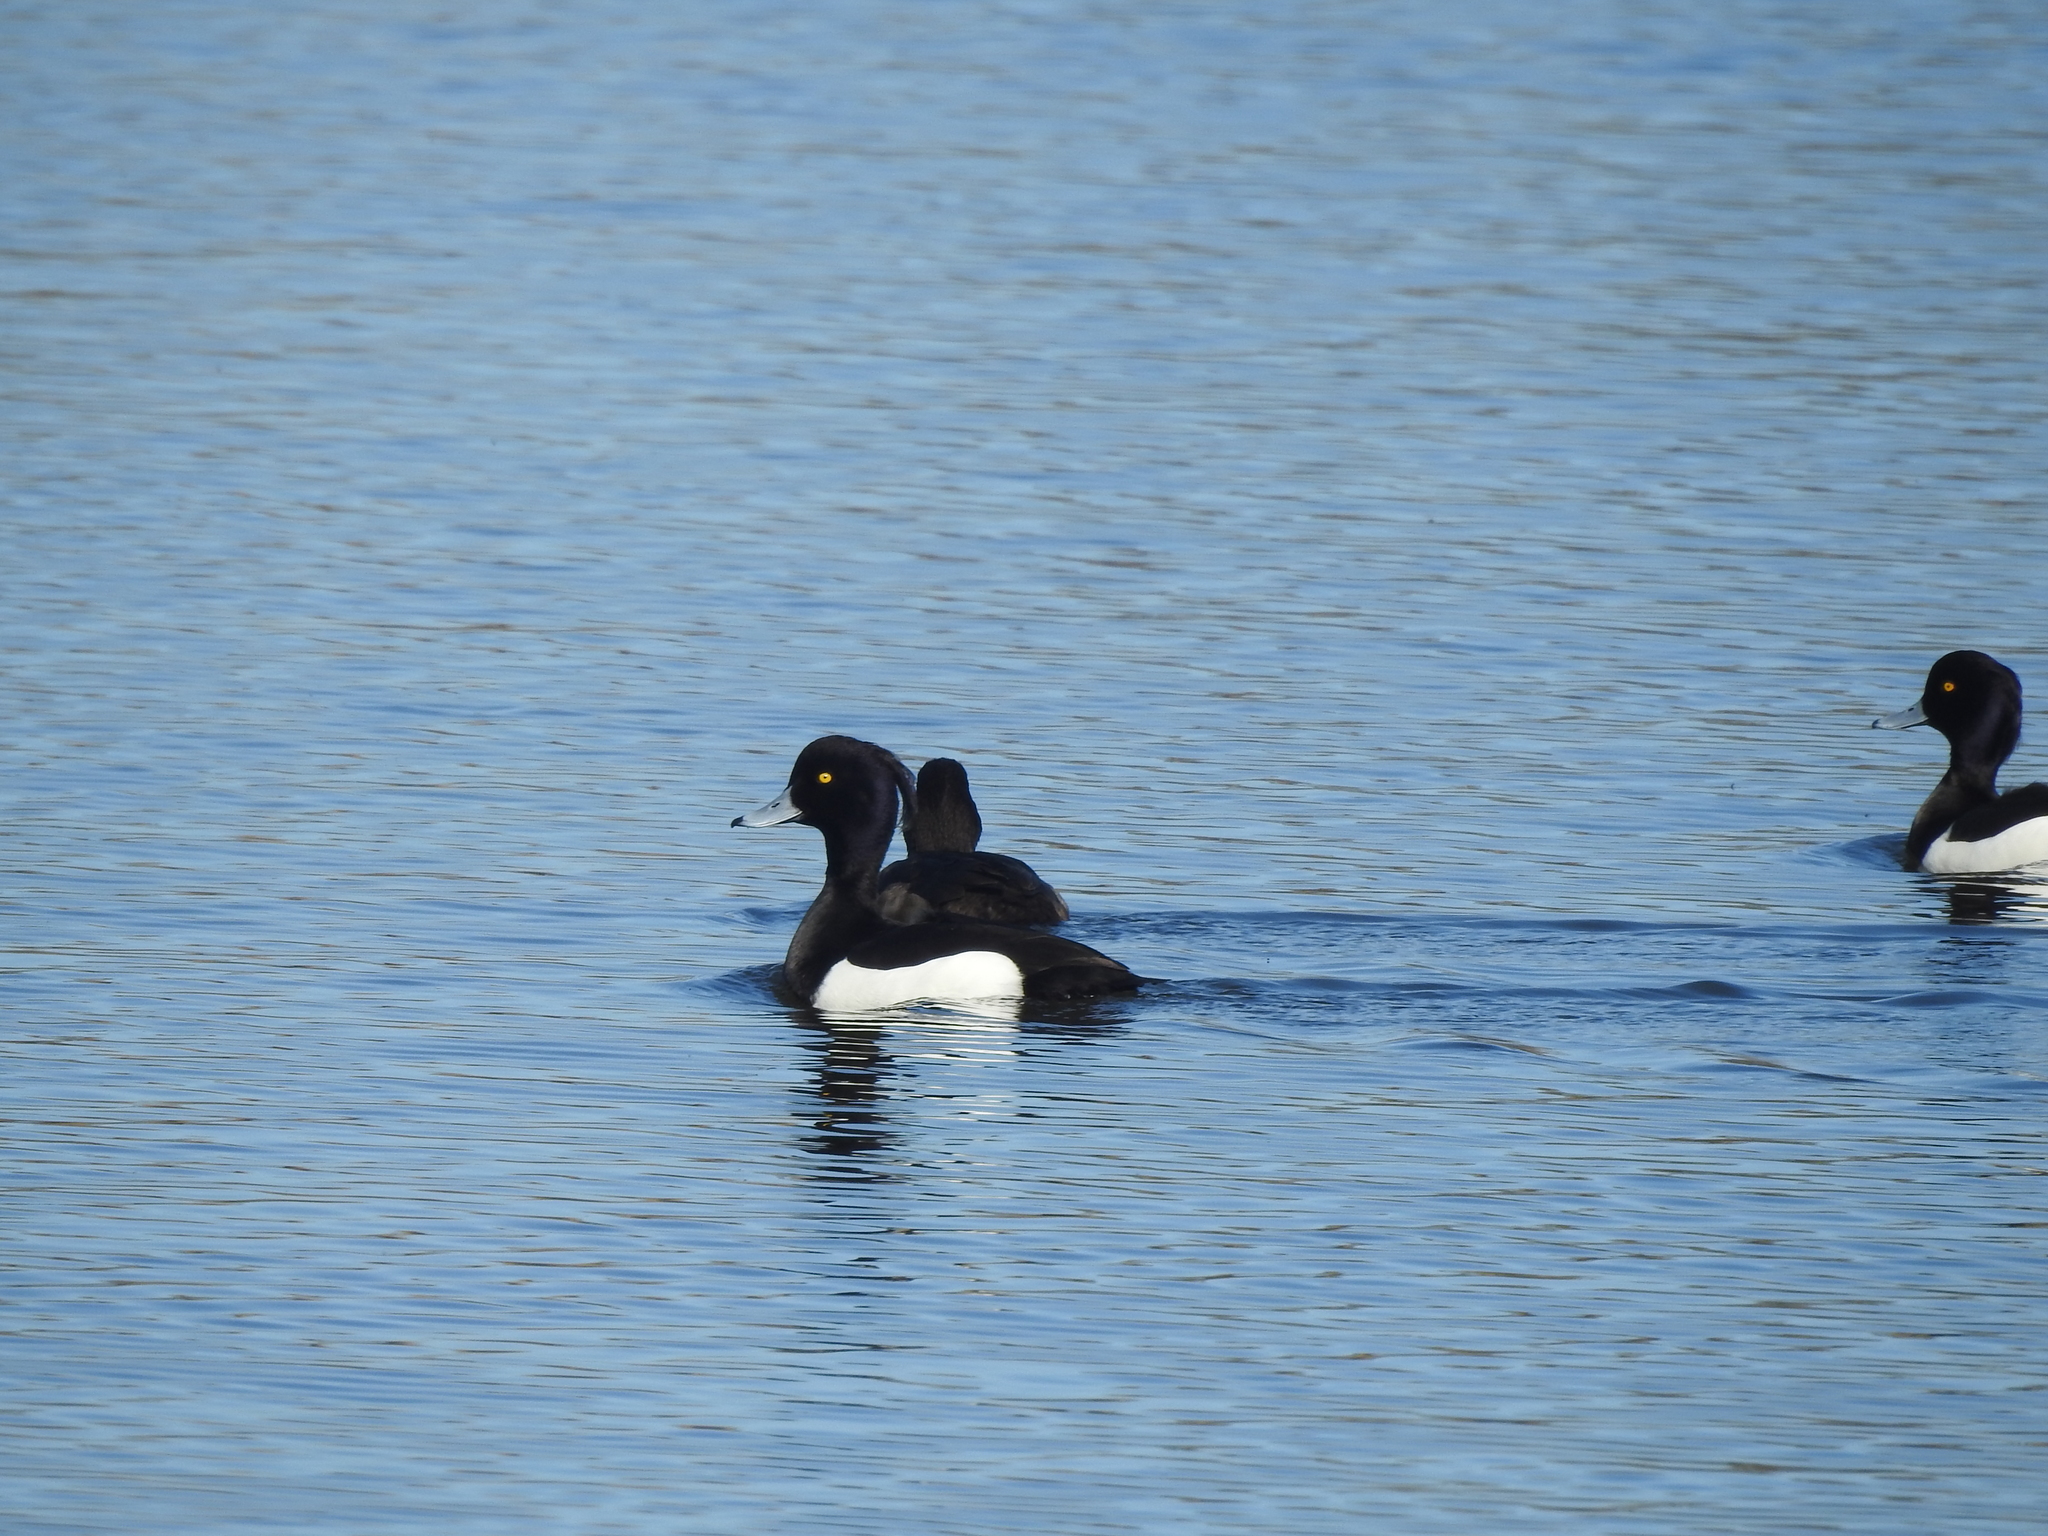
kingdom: Animalia
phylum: Chordata
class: Aves
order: Anseriformes
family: Anatidae
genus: Aythya
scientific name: Aythya fuligula
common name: Tufted duck
